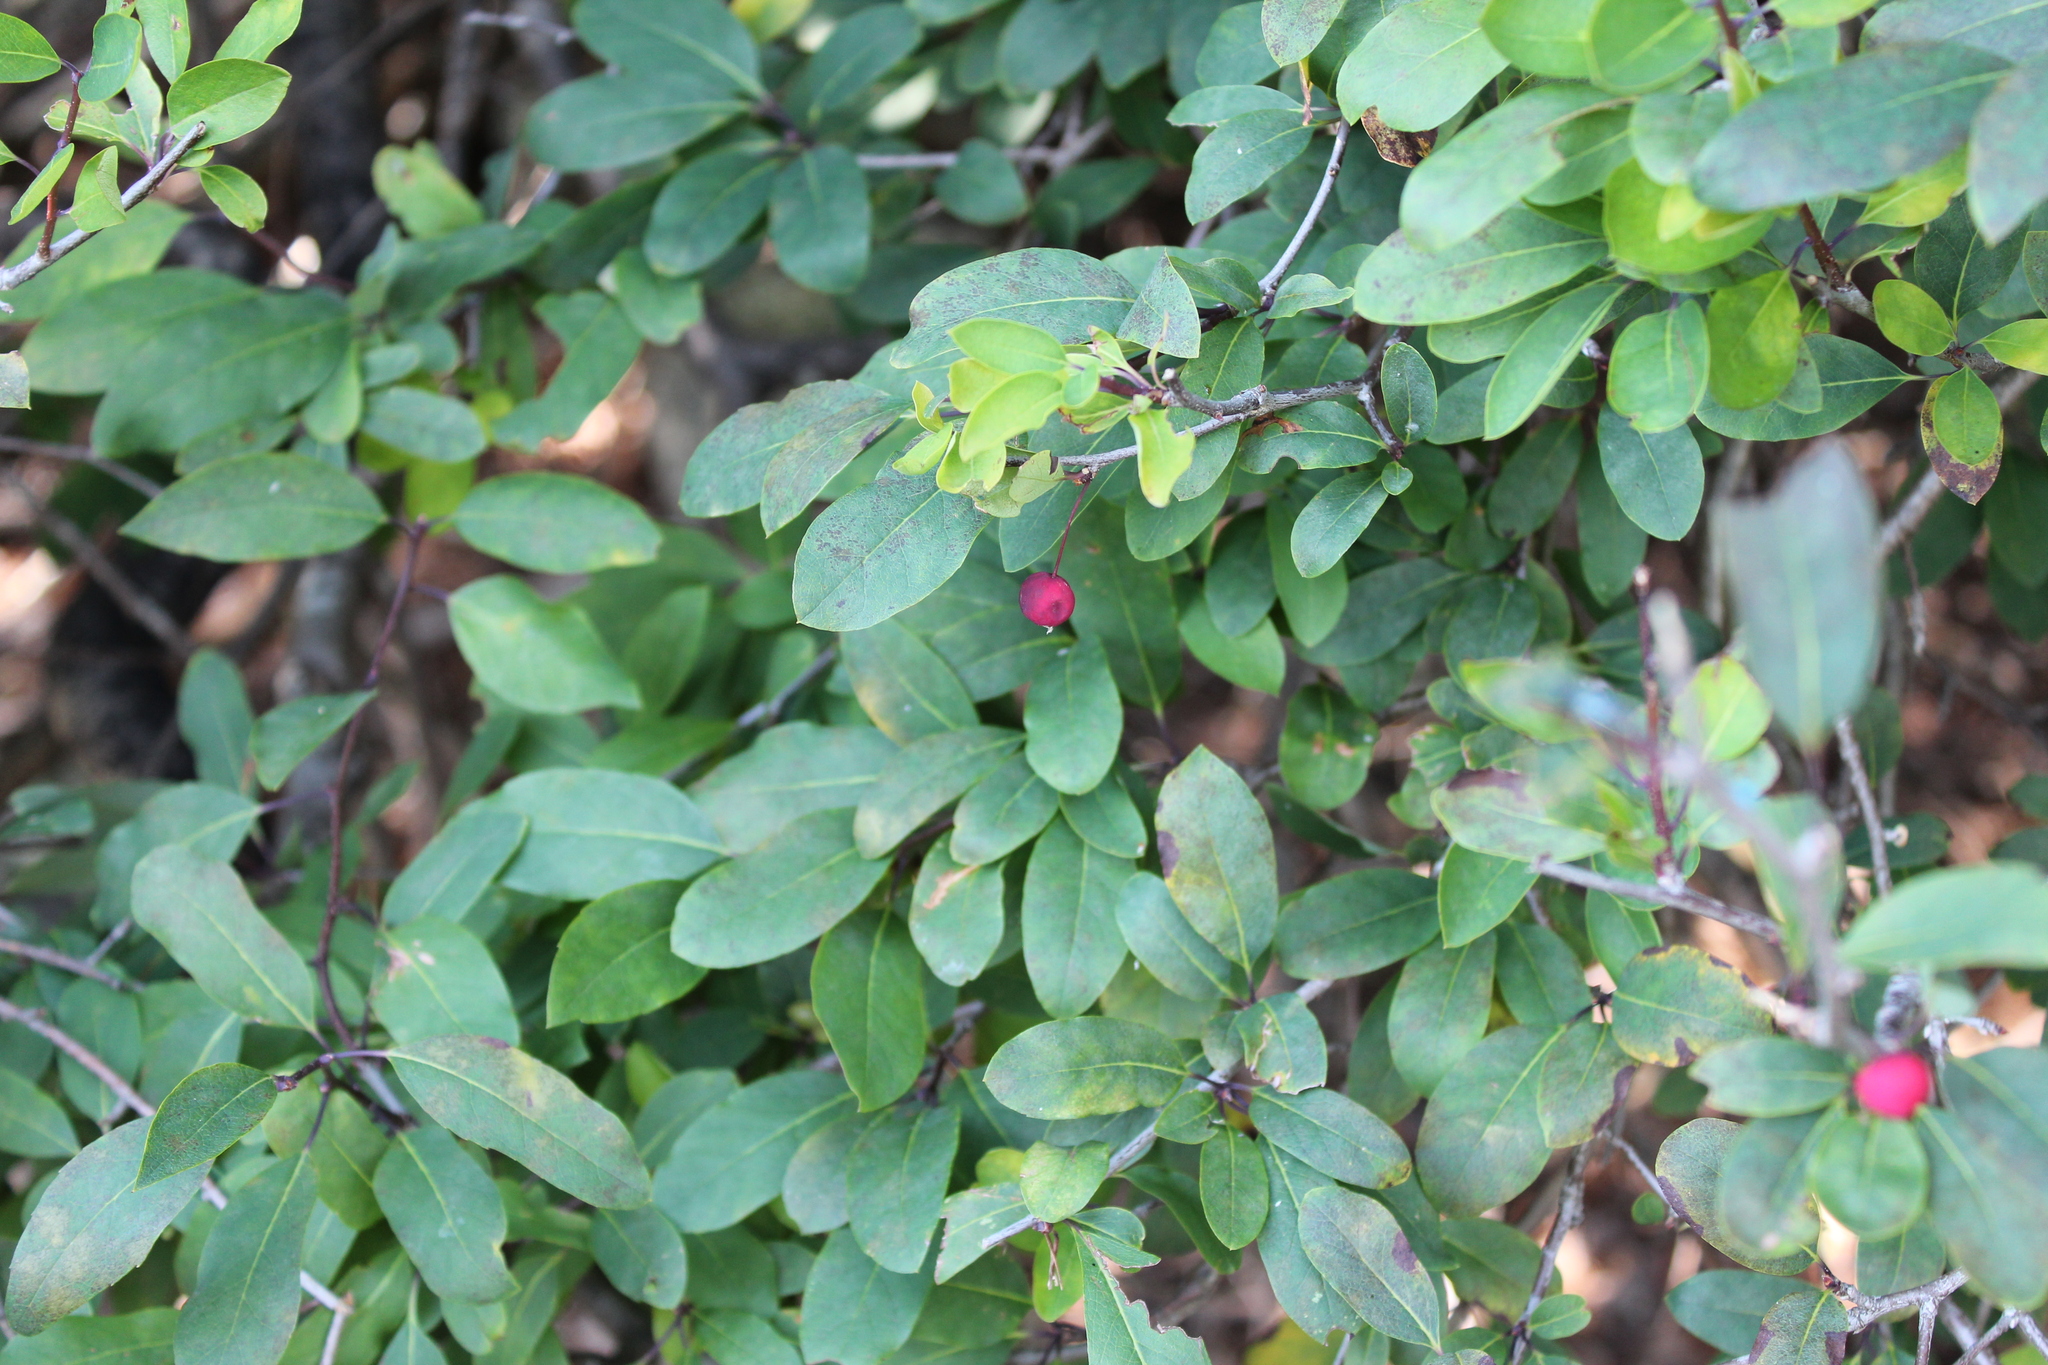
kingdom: Plantae
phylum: Tracheophyta
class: Magnoliopsida
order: Aquifoliales
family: Aquifoliaceae
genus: Ilex
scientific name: Ilex mucronata
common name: Catberry
